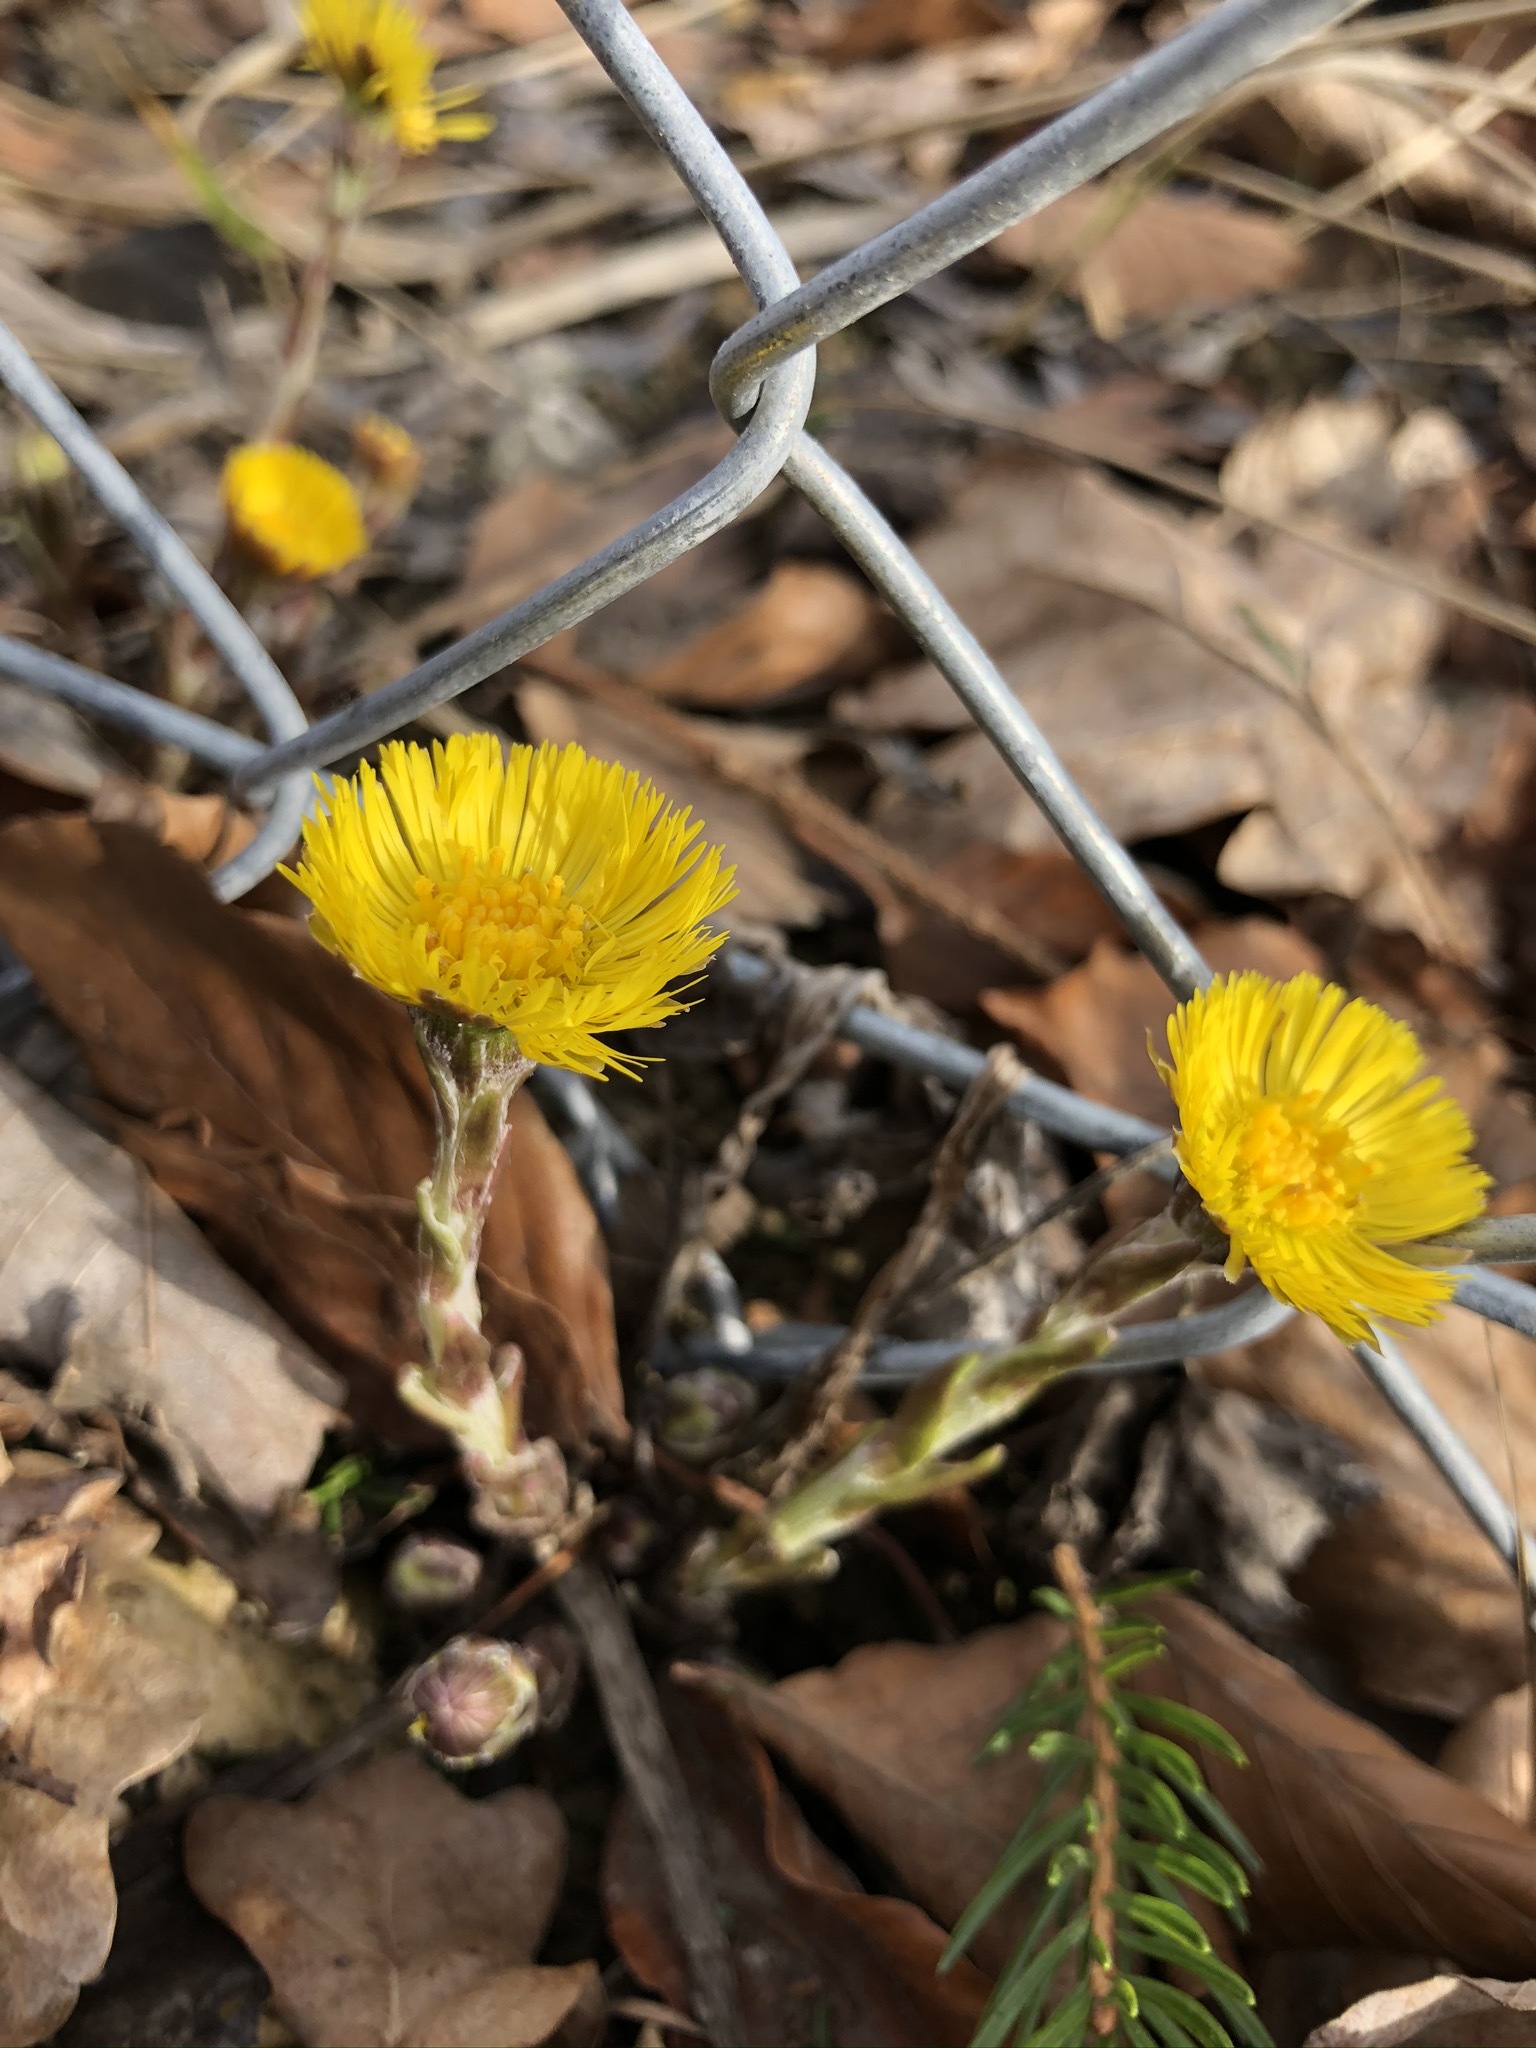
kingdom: Plantae
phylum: Tracheophyta
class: Magnoliopsida
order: Asterales
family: Asteraceae
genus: Tussilago
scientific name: Tussilago farfara
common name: Coltsfoot
